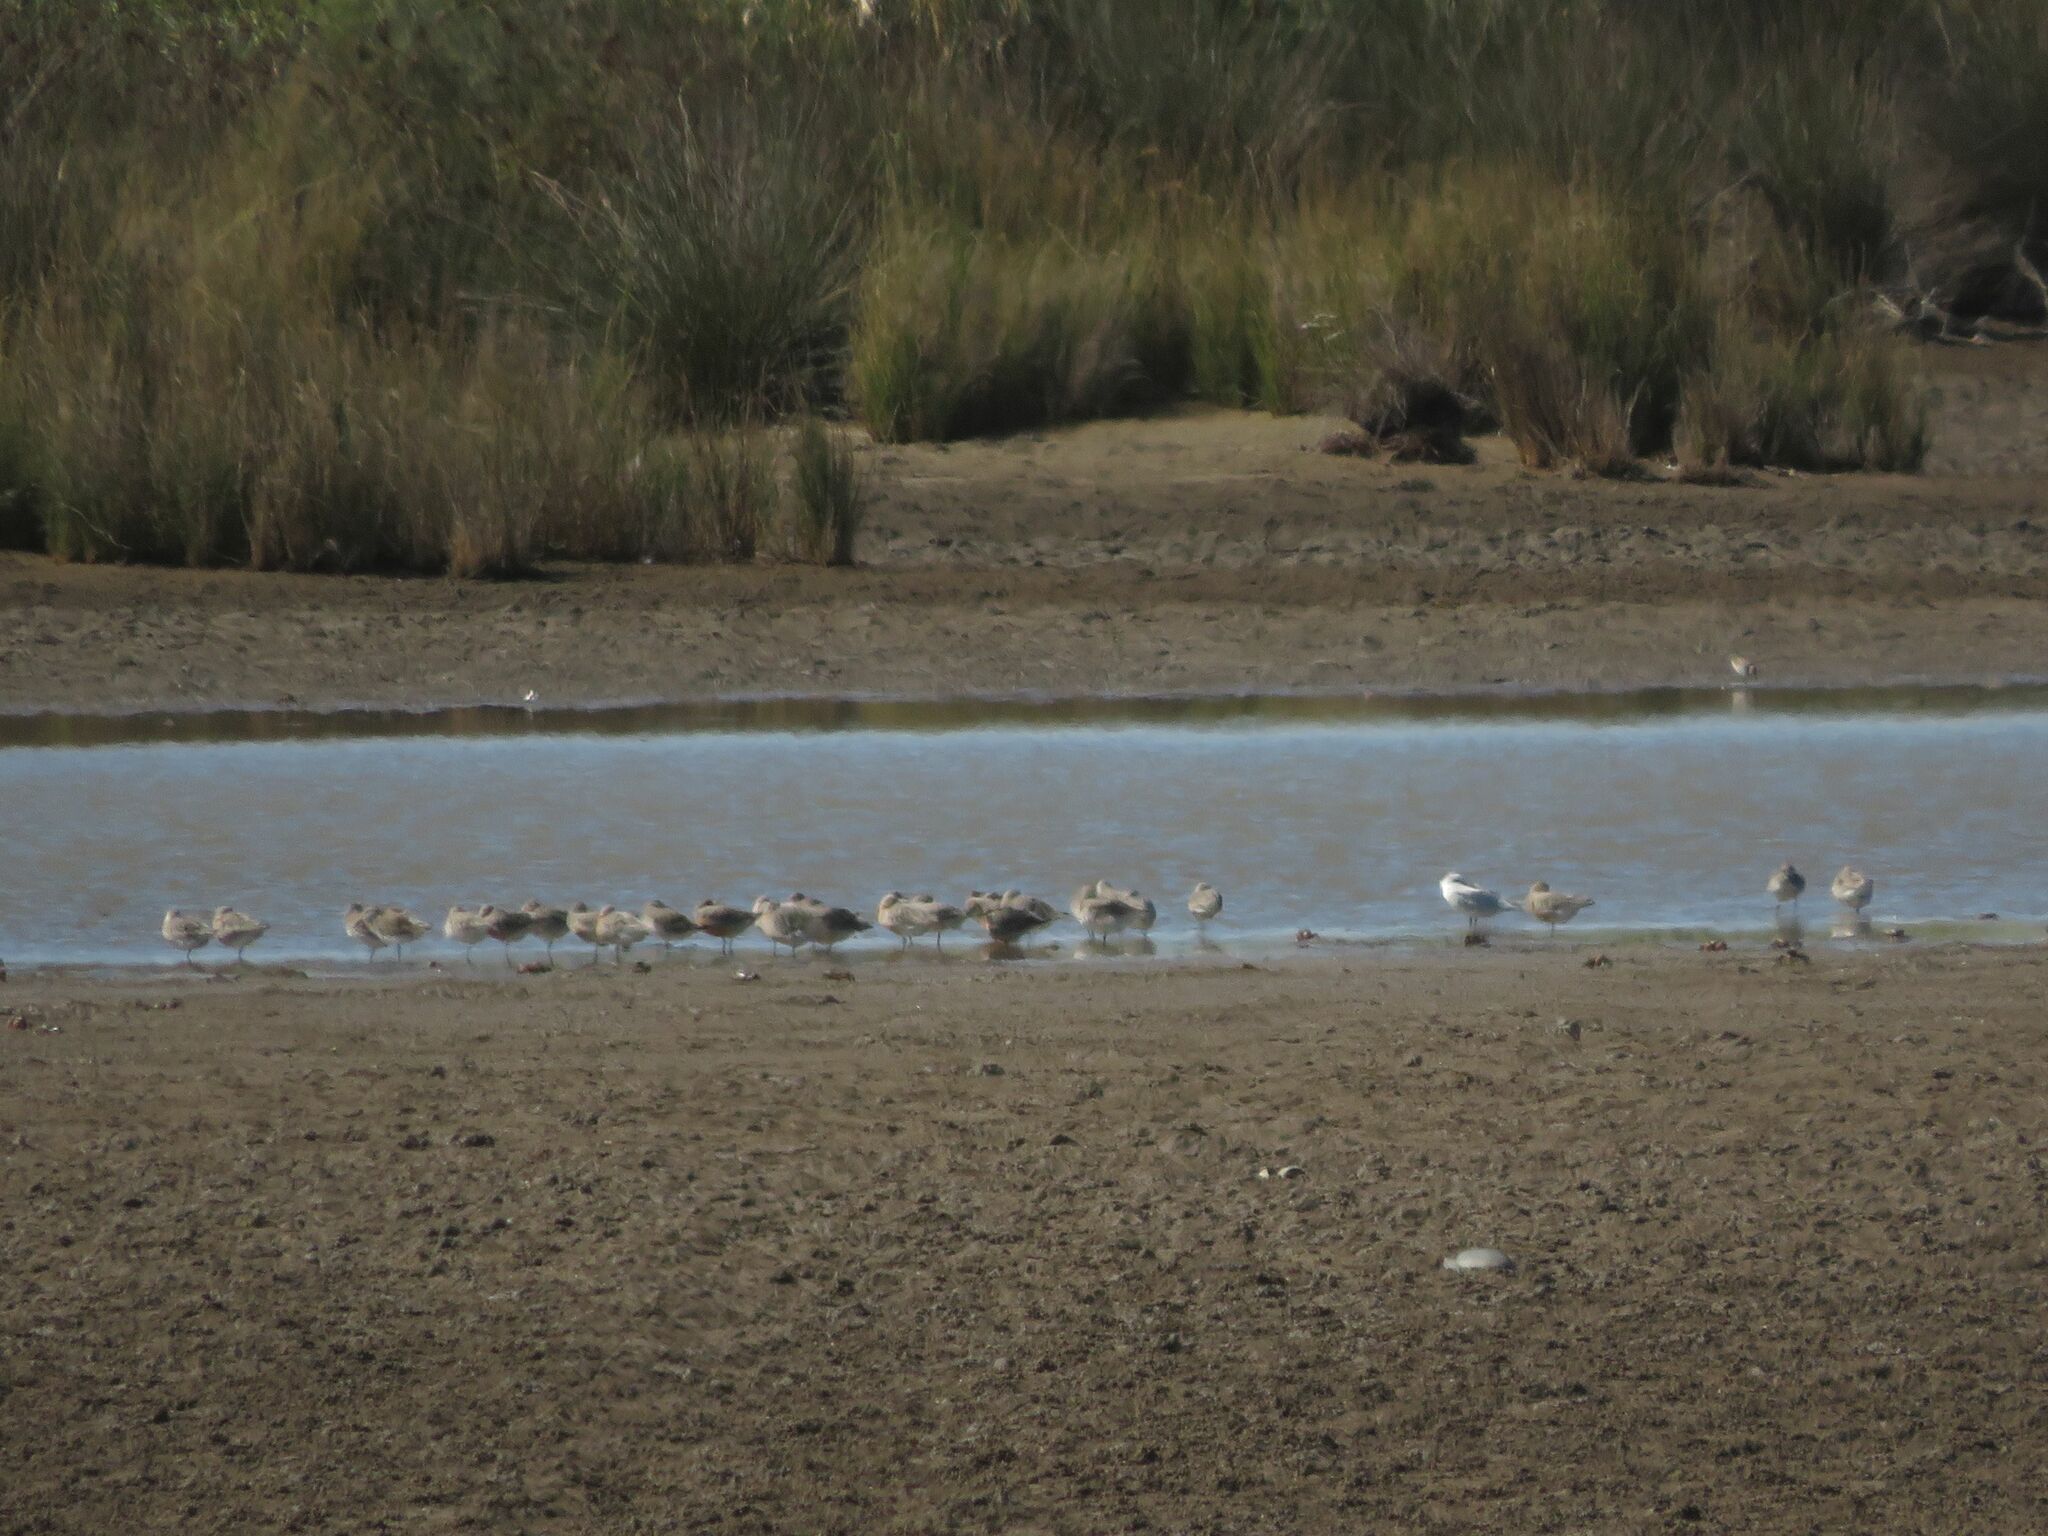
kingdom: Animalia
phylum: Chordata
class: Aves
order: Charadriiformes
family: Scolopacidae
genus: Calidris
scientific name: Calidris canutus
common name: Red knot
